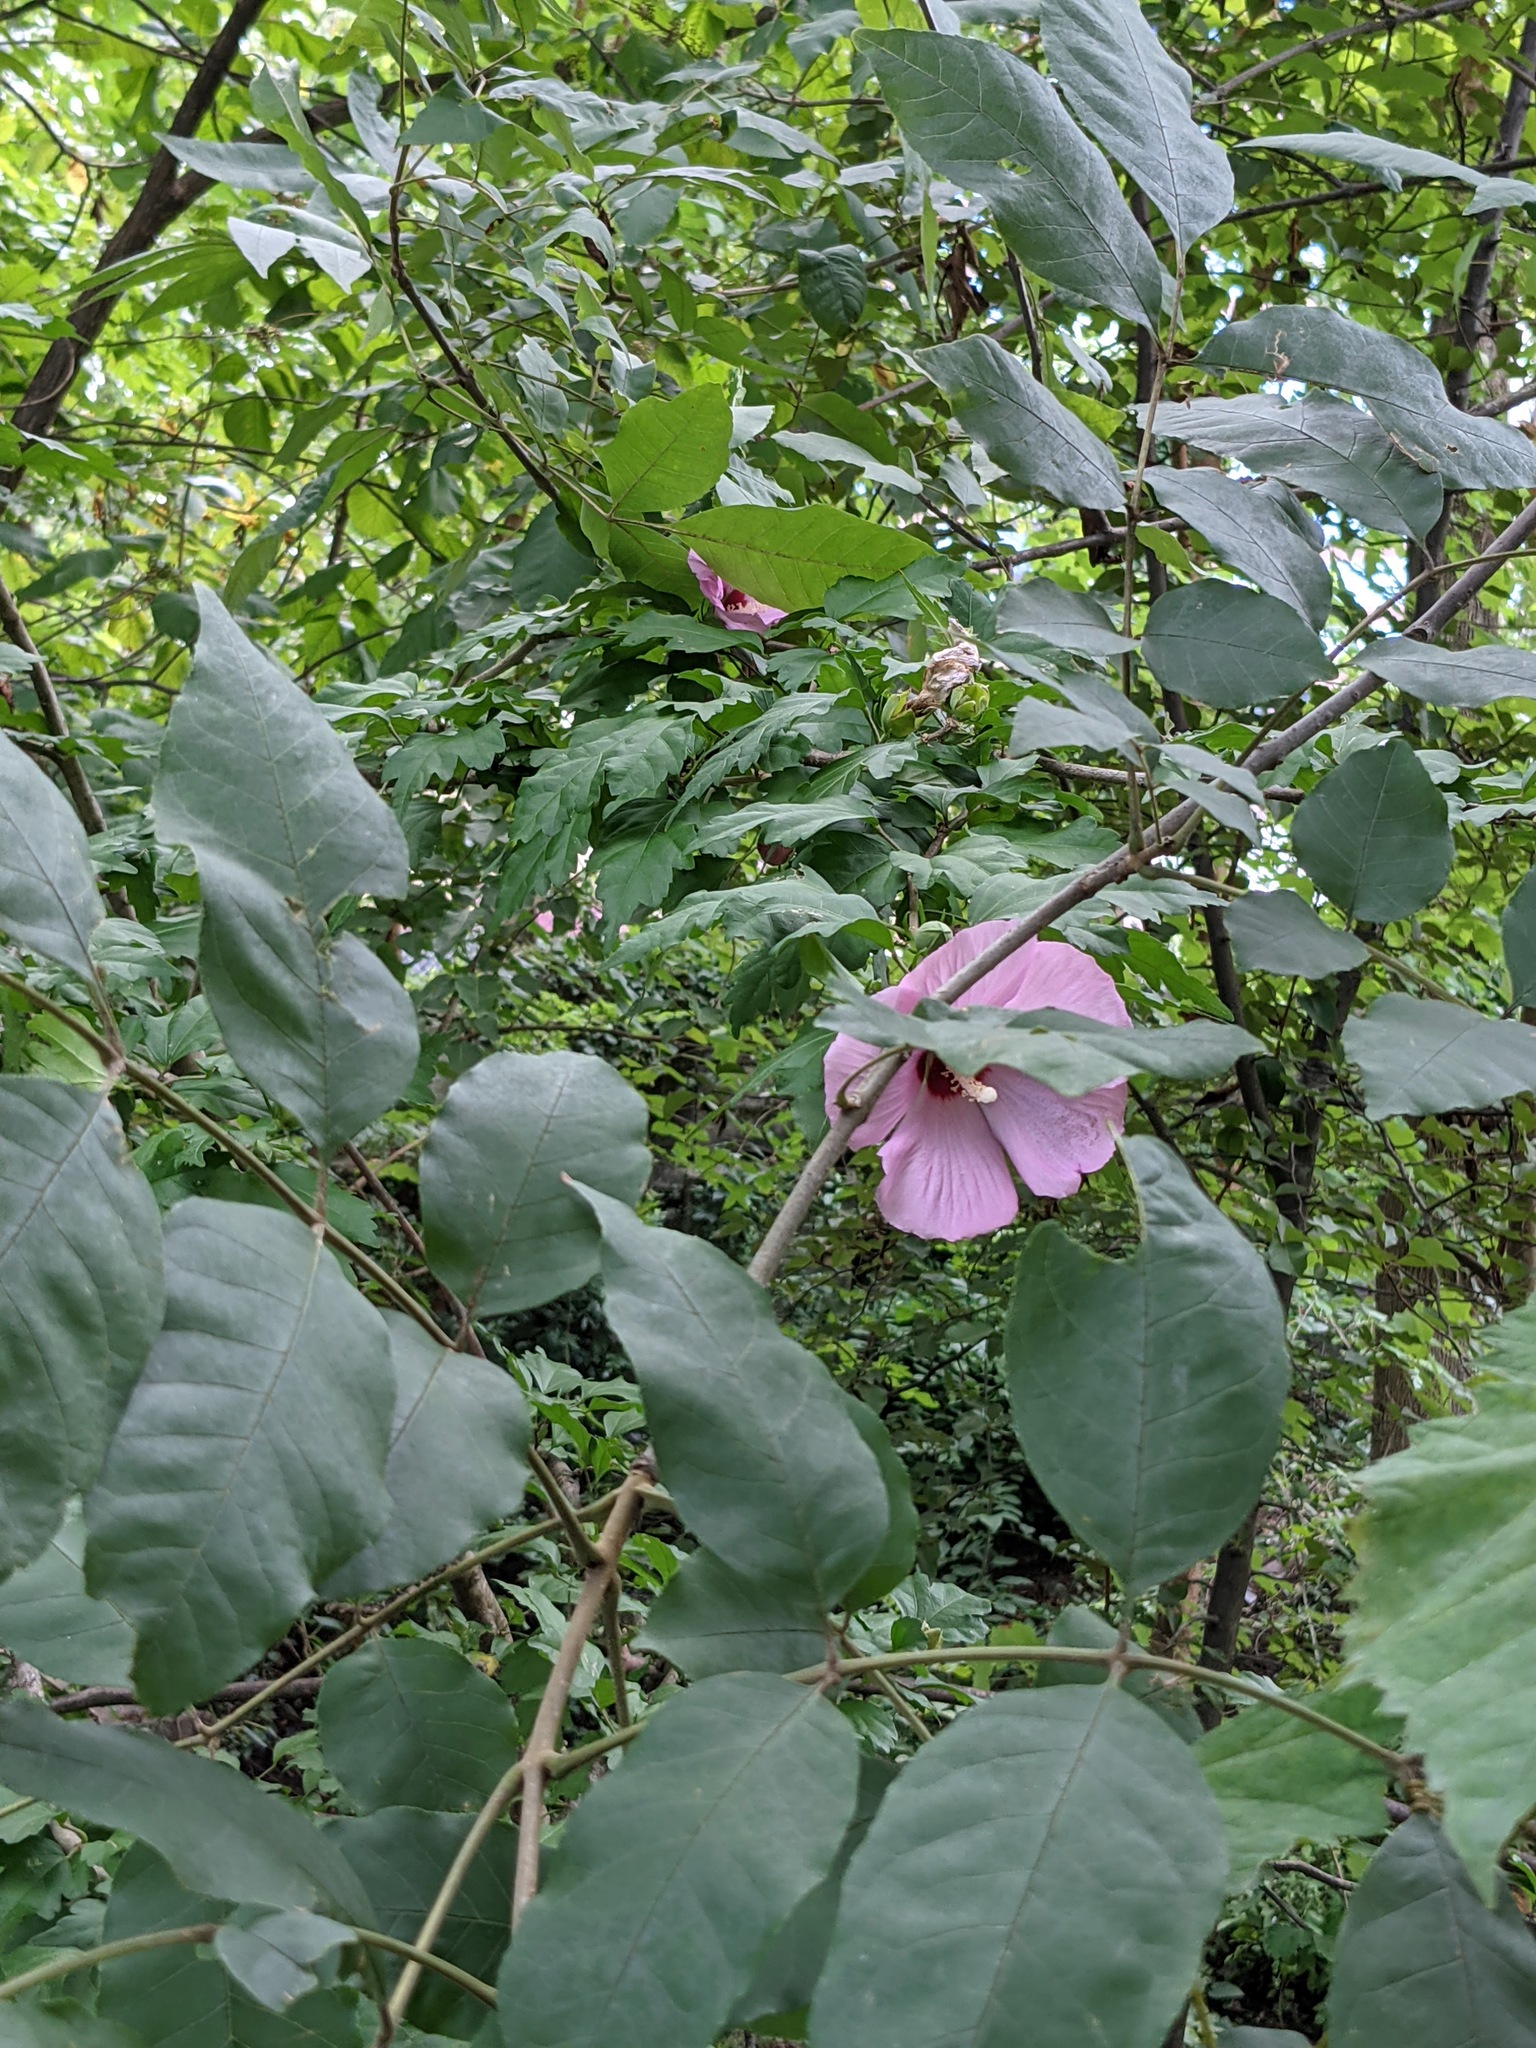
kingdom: Plantae
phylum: Tracheophyta
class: Magnoliopsida
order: Malvales
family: Malvaceae
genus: Hibiscus
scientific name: Hibiscus syriacus
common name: Syrian ketmia
